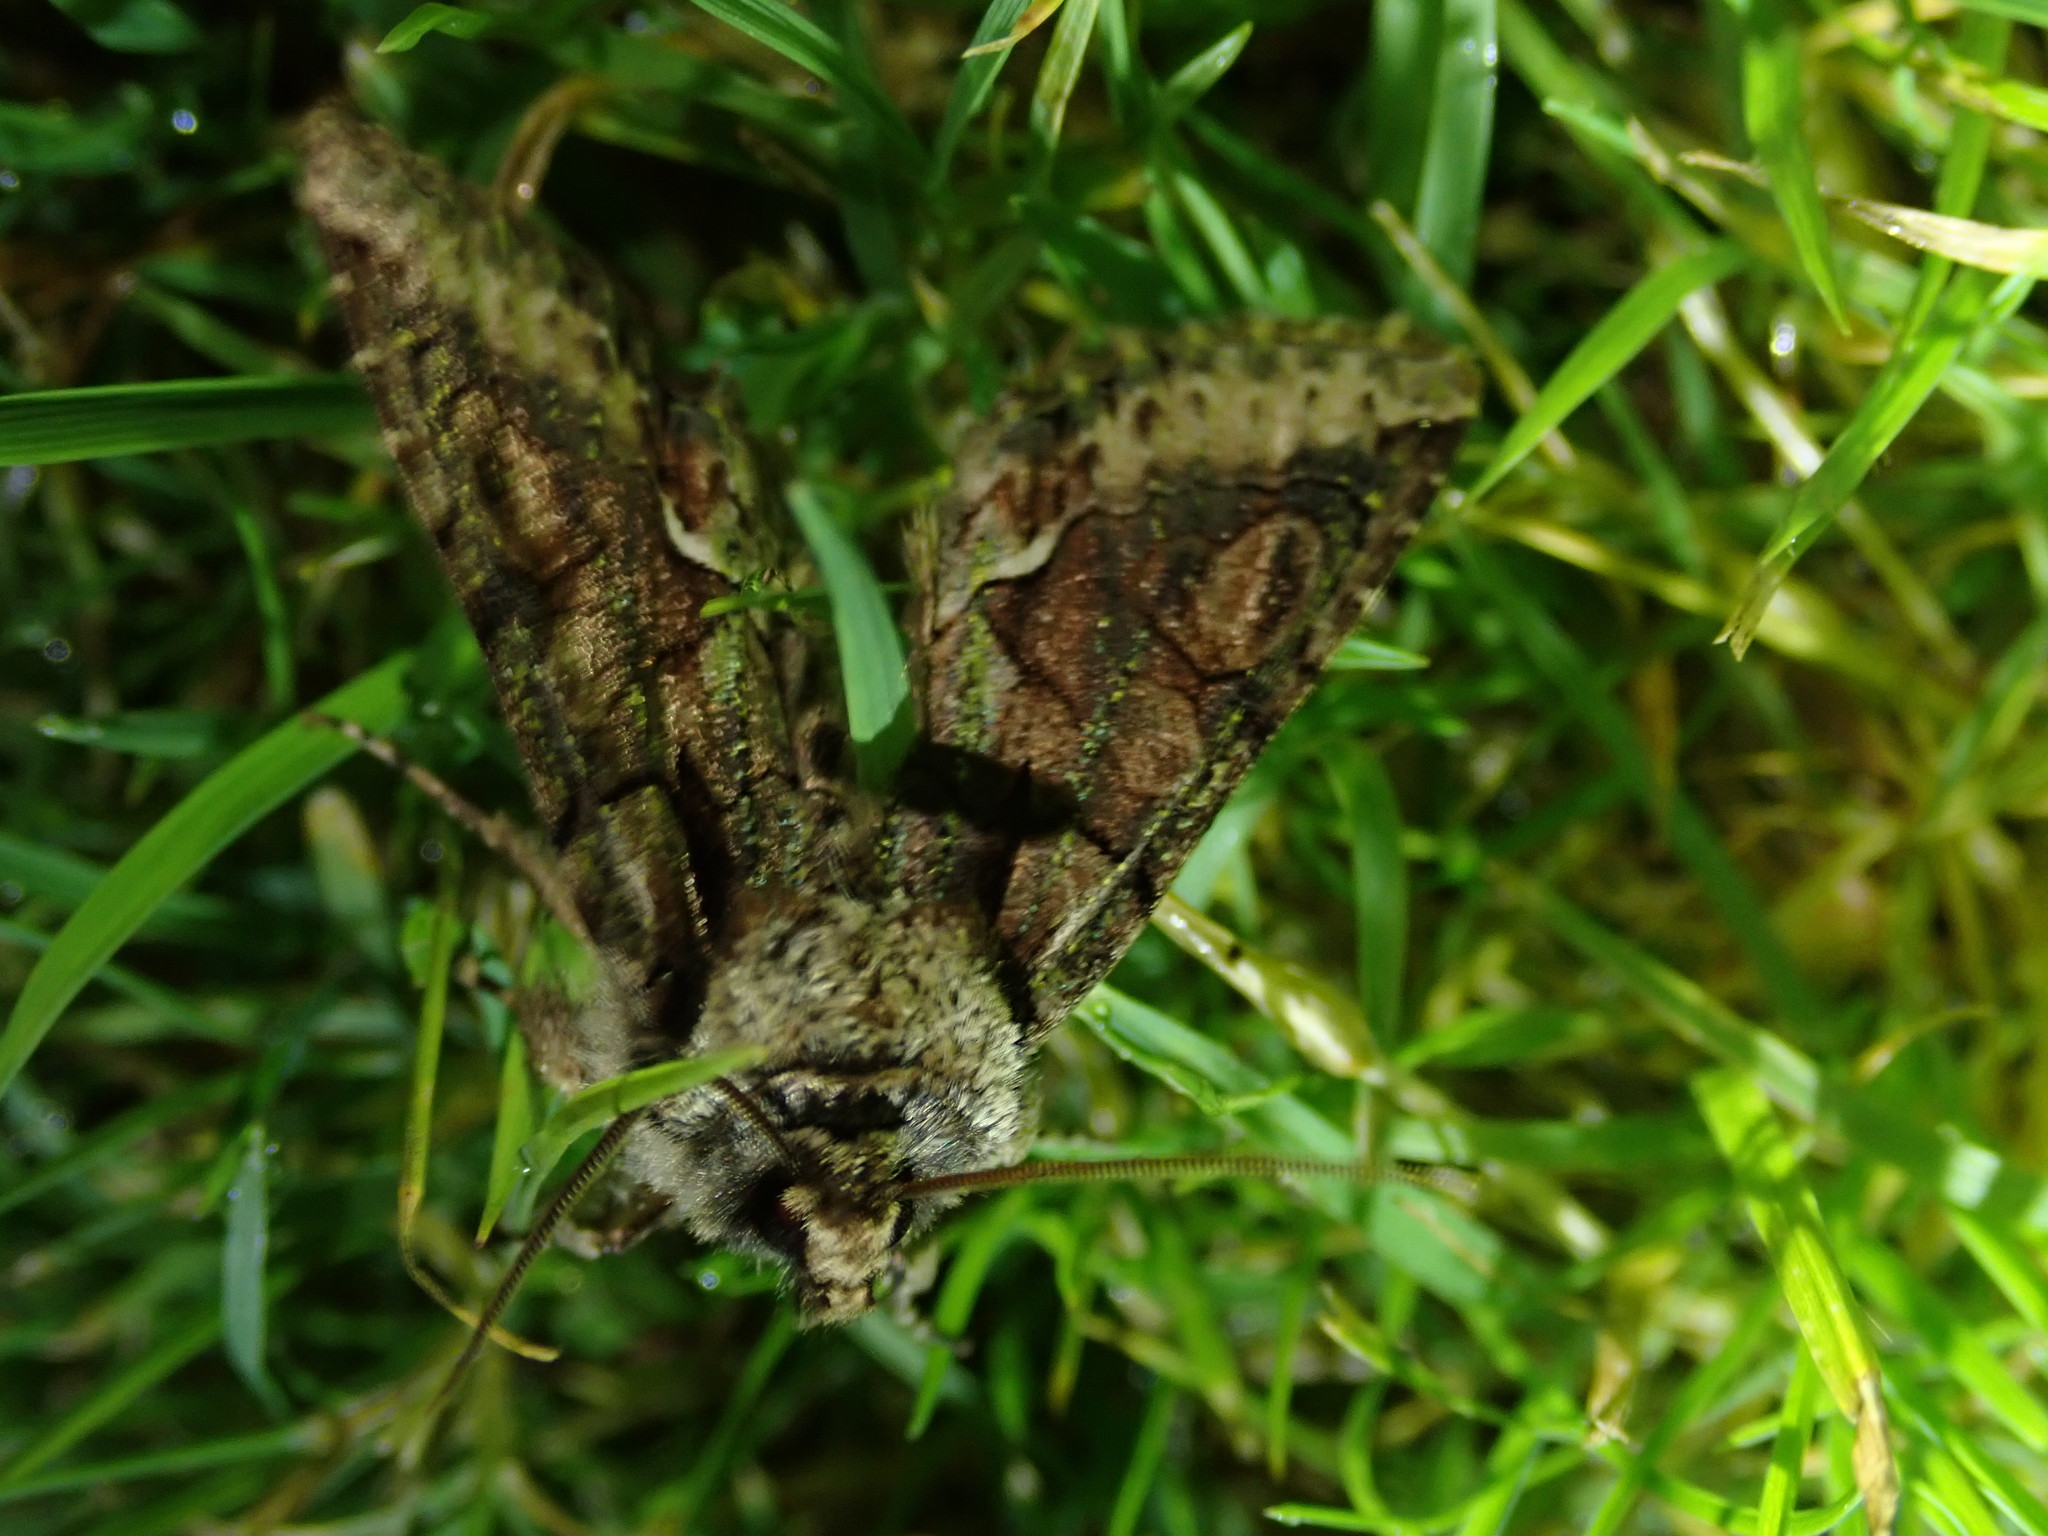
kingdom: Animalia
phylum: Arthropoda
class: Insecta
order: Lepidoptera
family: Noctuidae
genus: Allophyes
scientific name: Allophyes oxyacanthae
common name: Green-brindled crescent
